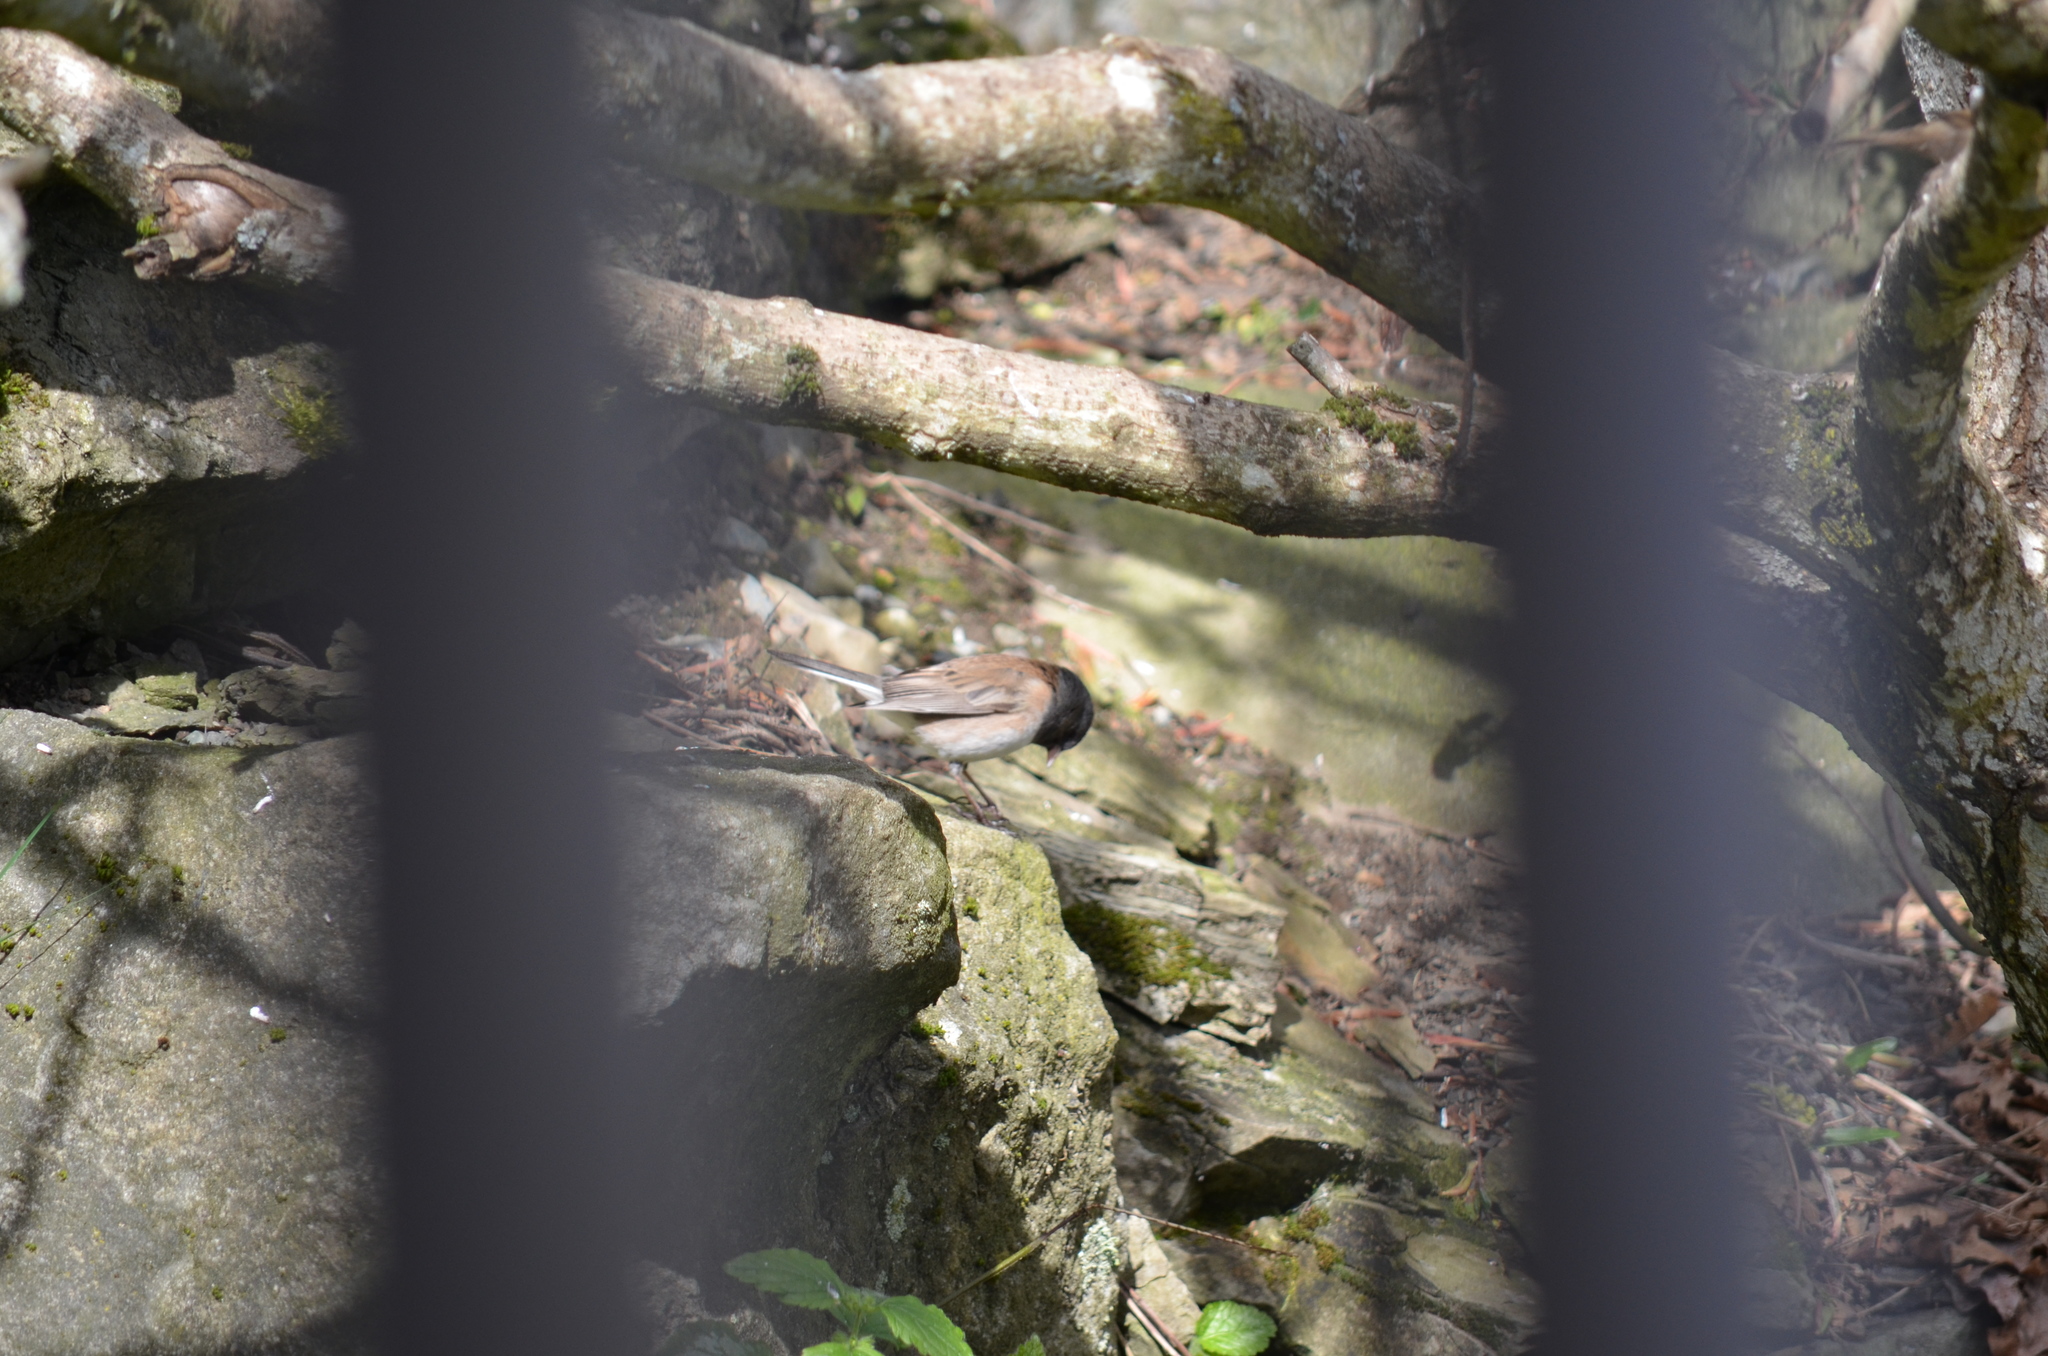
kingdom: Animalia
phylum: Chordata
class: Aves
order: Passeriformes
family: Passerellidae
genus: Junco
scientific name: Junco hyemalis
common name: Dark-eyed junco
